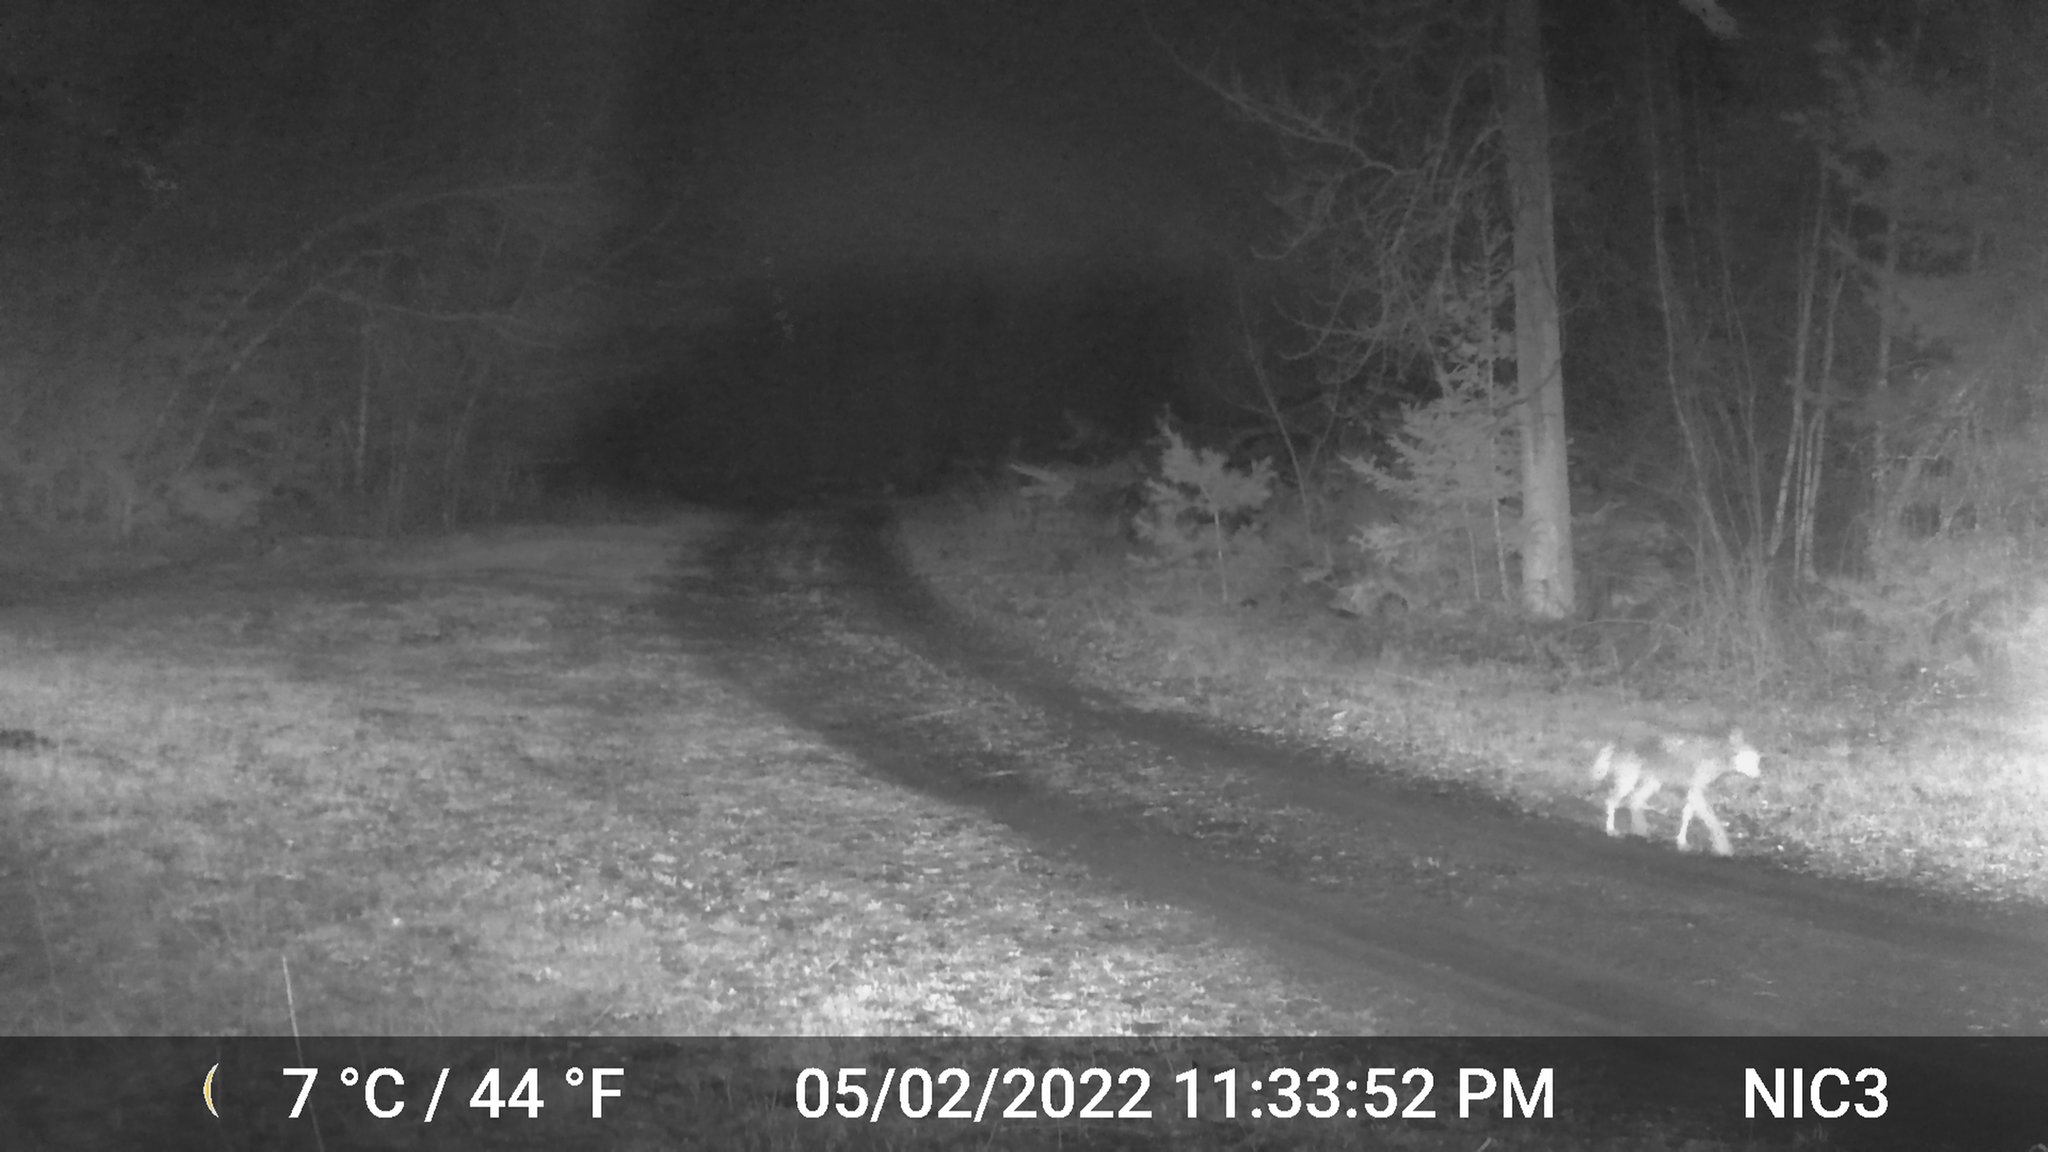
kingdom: Animalia
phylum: Chordata
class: Mammalia
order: Carnivora
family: Canidae
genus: Canis
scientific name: Canis latrans
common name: Coyote
